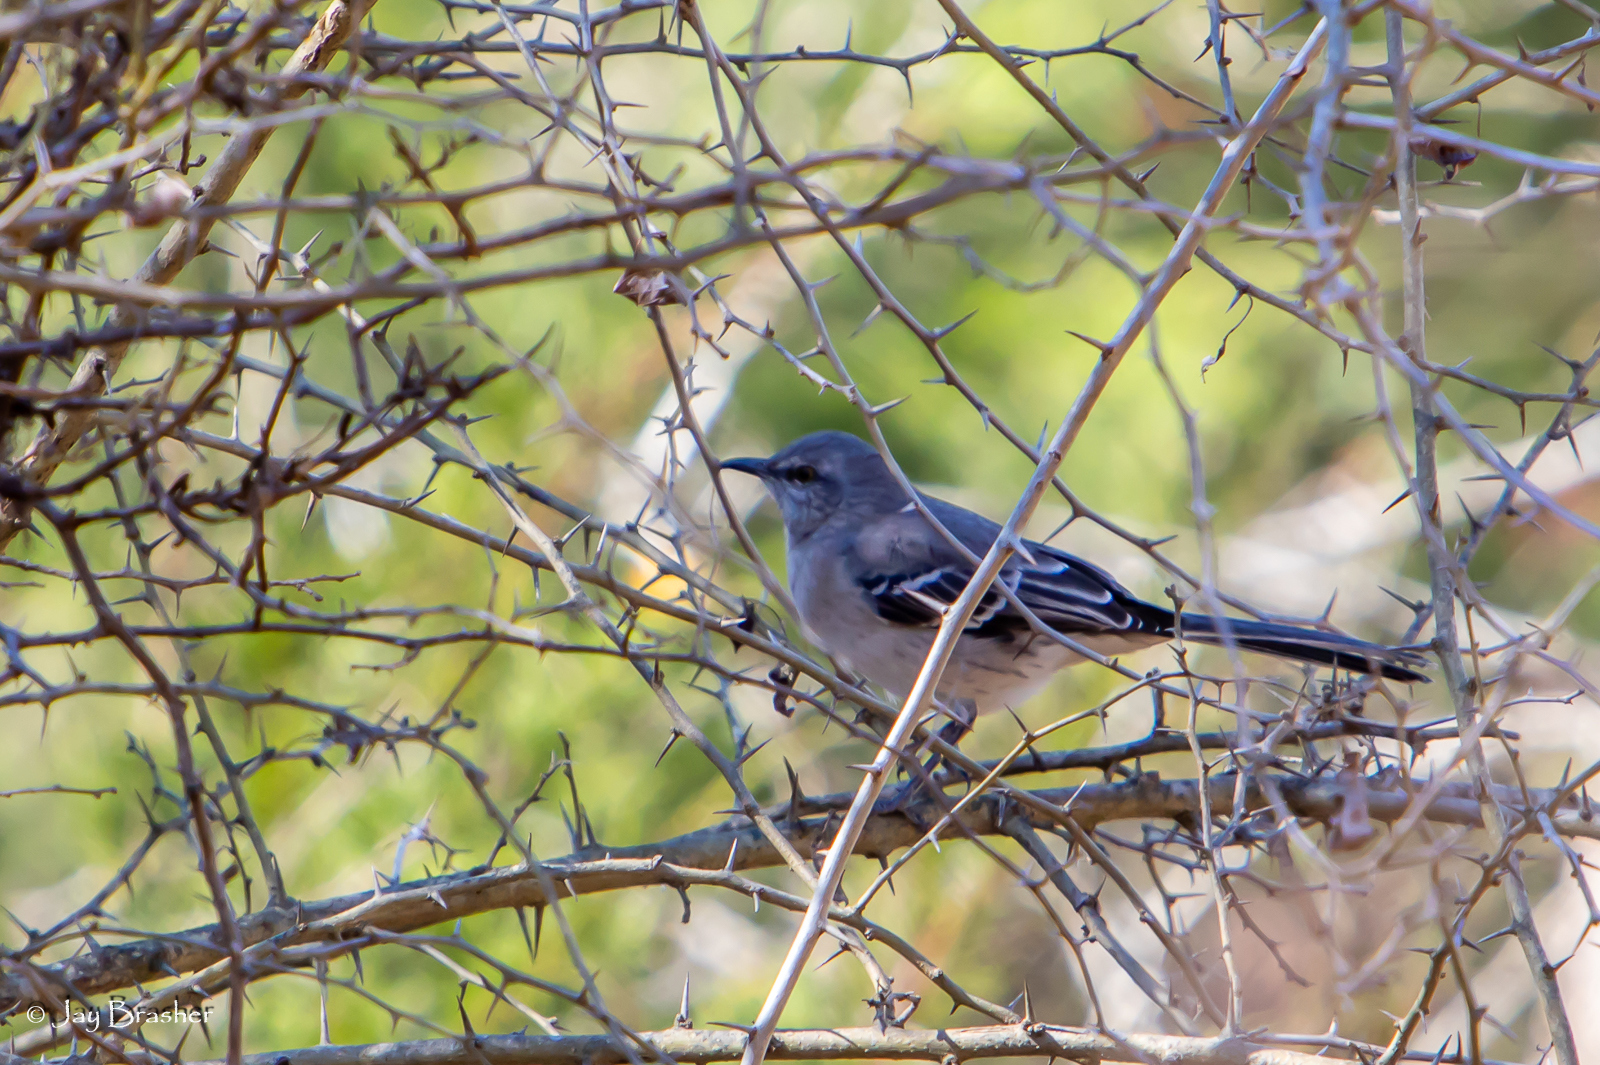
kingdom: Animalia
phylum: Chordata
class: Aves
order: Passeriformes
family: Mimidae
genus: Mimus
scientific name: Mimus polyglottos
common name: Northern mockingbird
